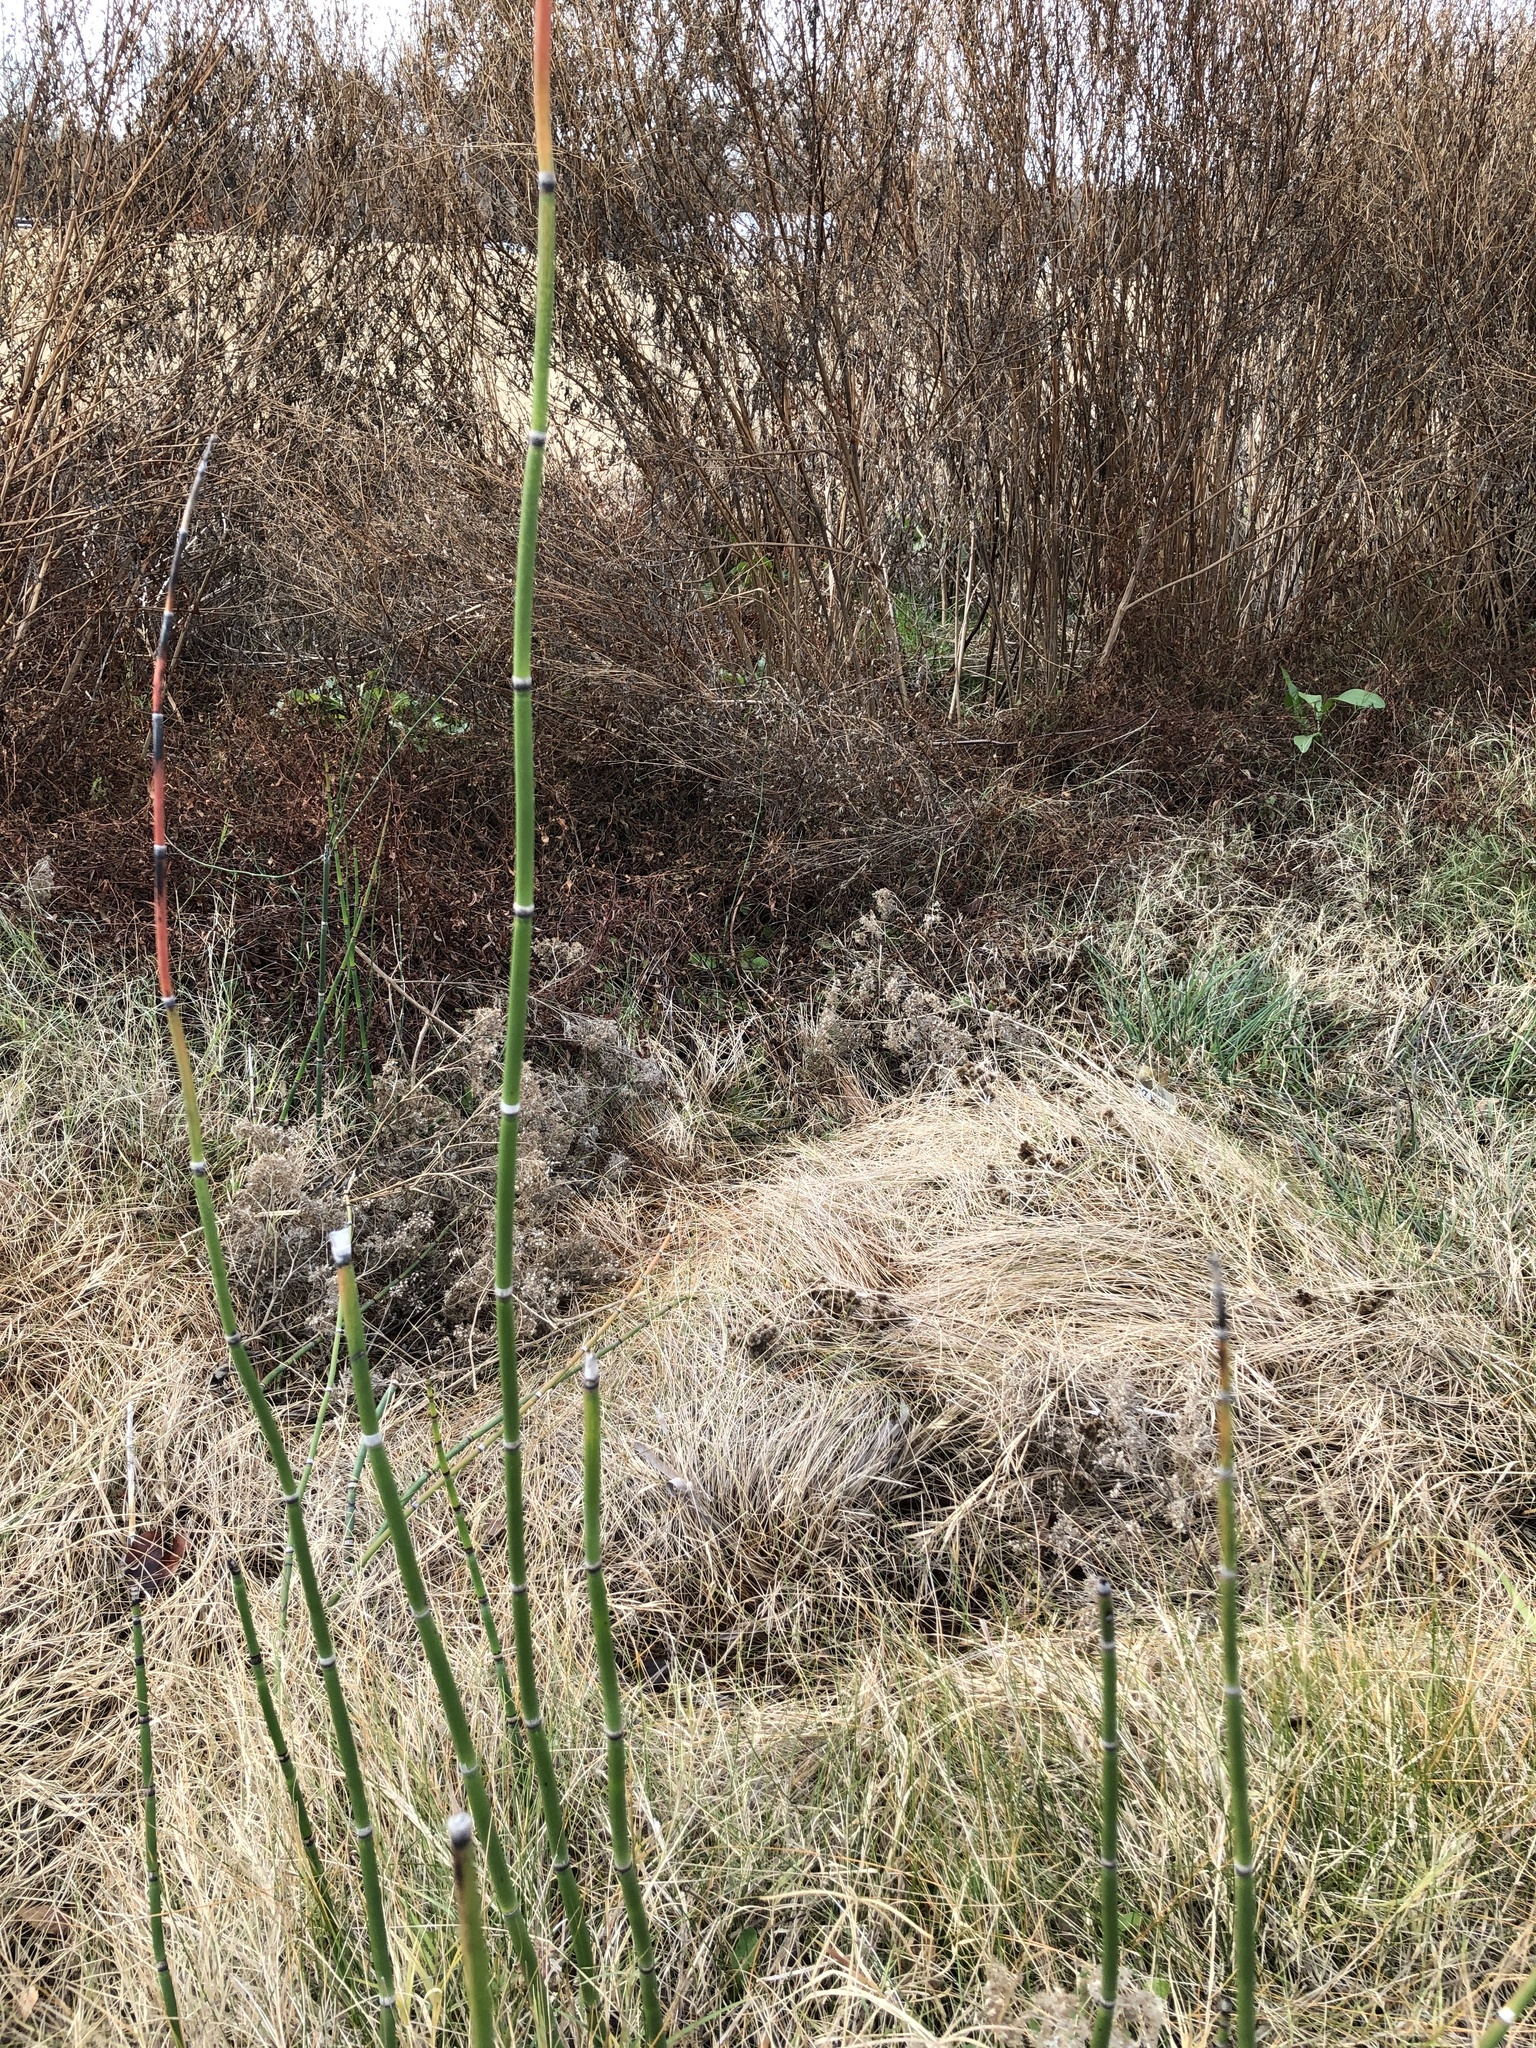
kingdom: Plantae
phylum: Tracheophyta
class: Polypodiopsida
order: Equisetales
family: Equisetaceae
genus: Equisetum
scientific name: Equisetum hyemale
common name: Rough horsetail
